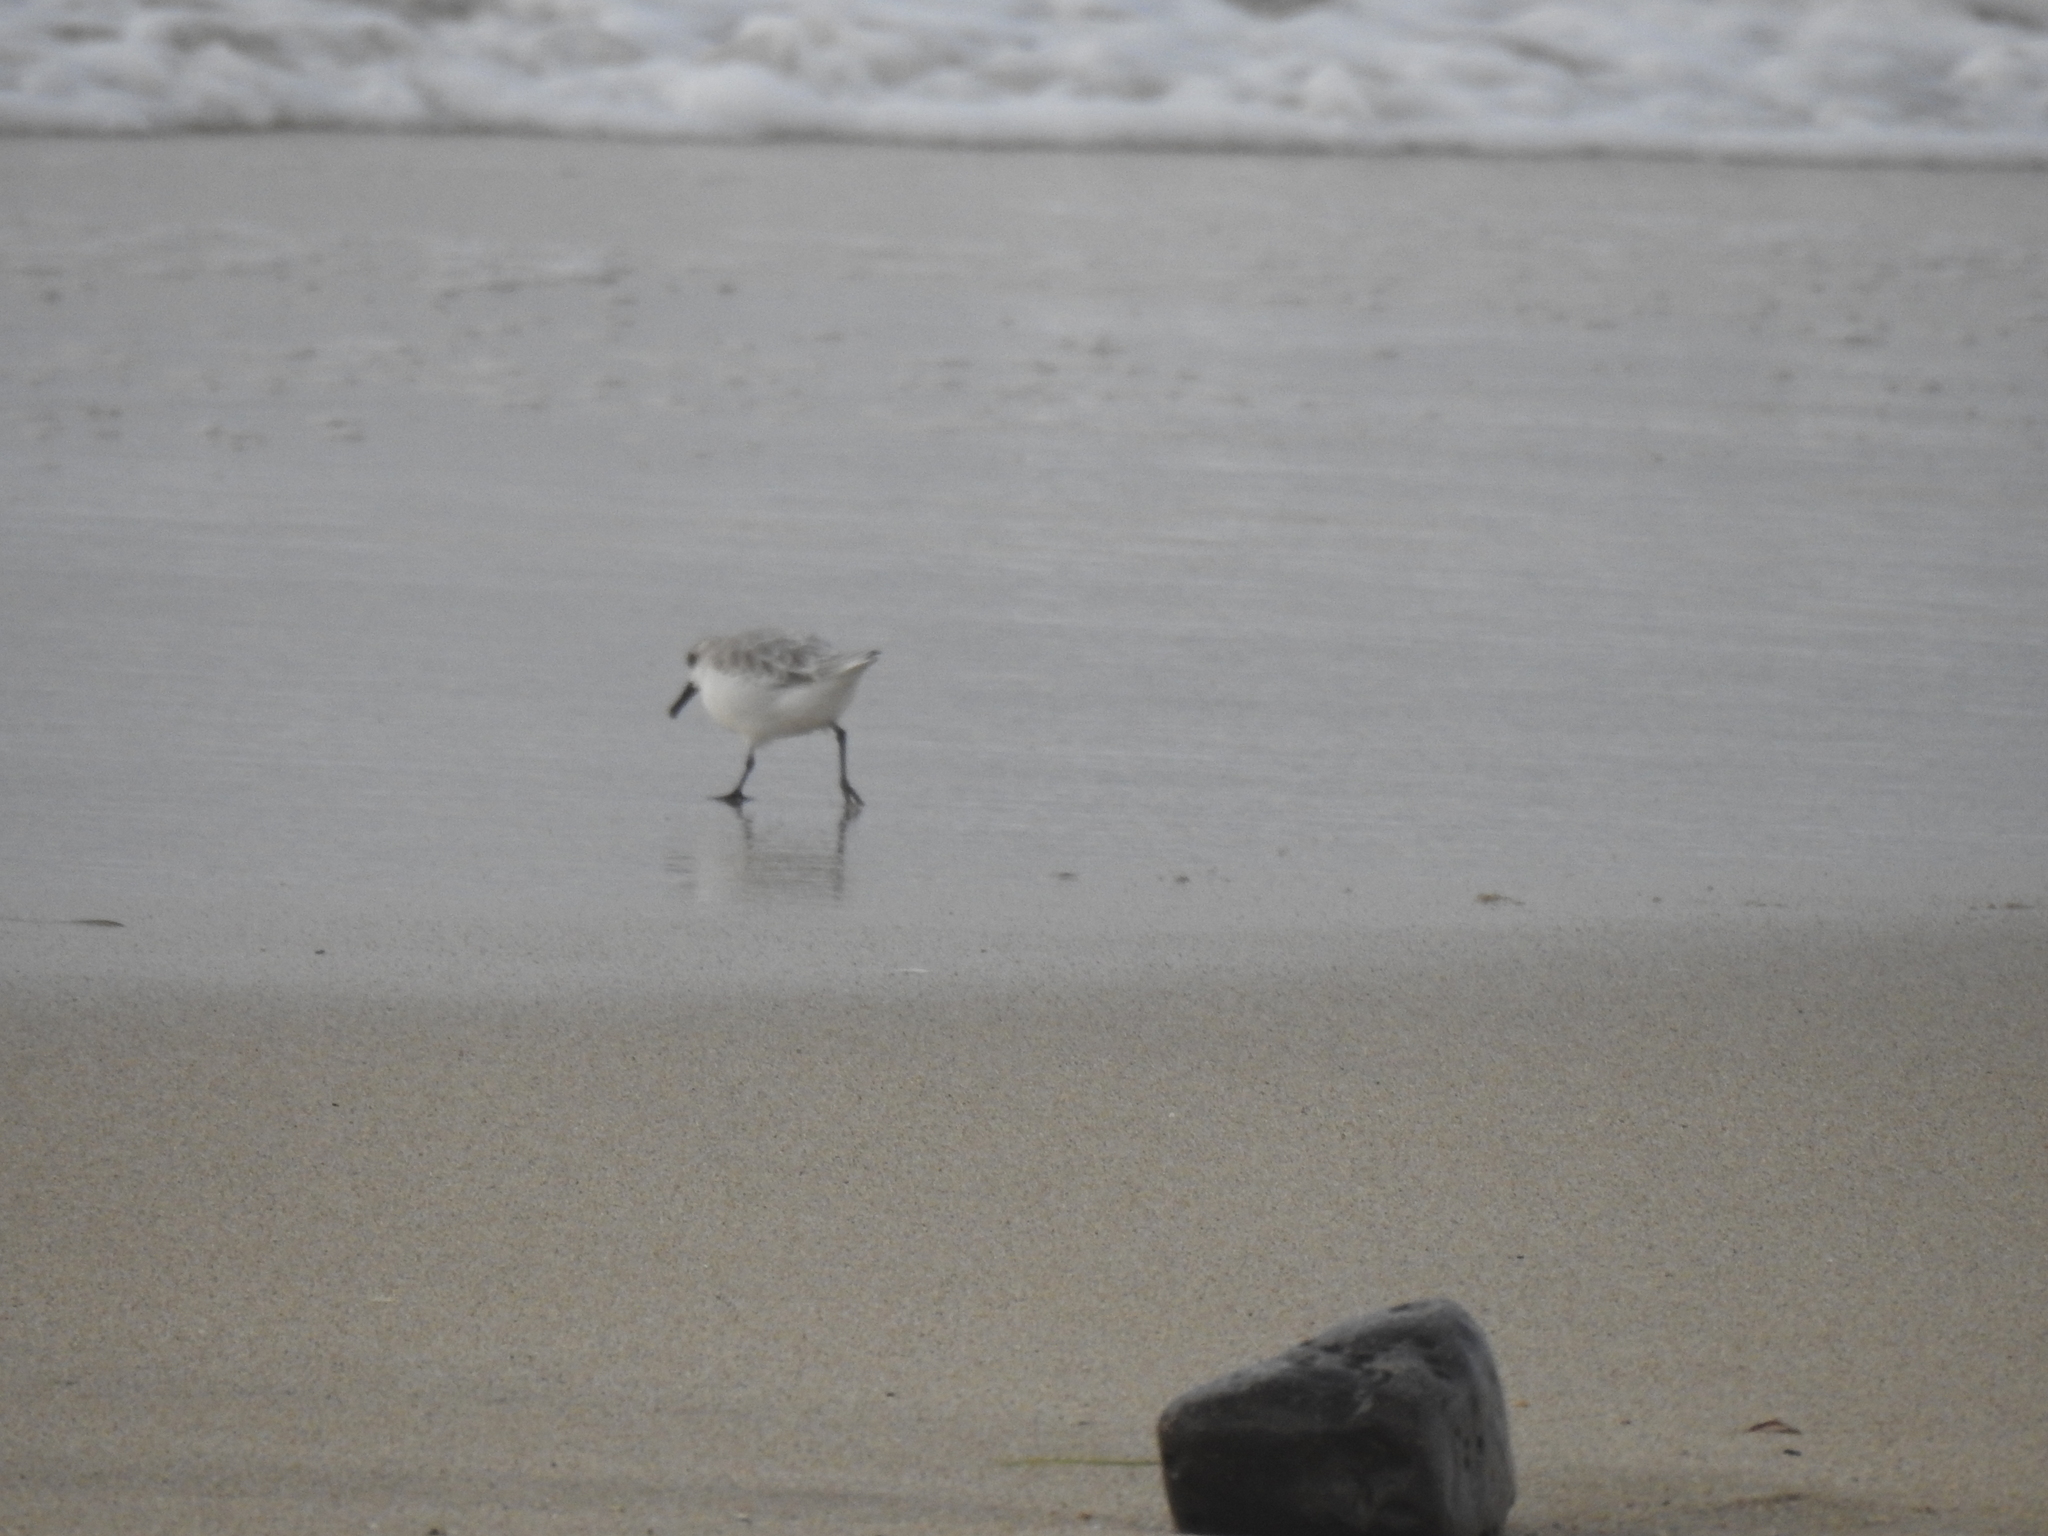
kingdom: Animalia
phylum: Chordata
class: Aves
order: Charadriiformes
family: Scolopacidae
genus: Calidris
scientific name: Calidris alba
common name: Sanderling
